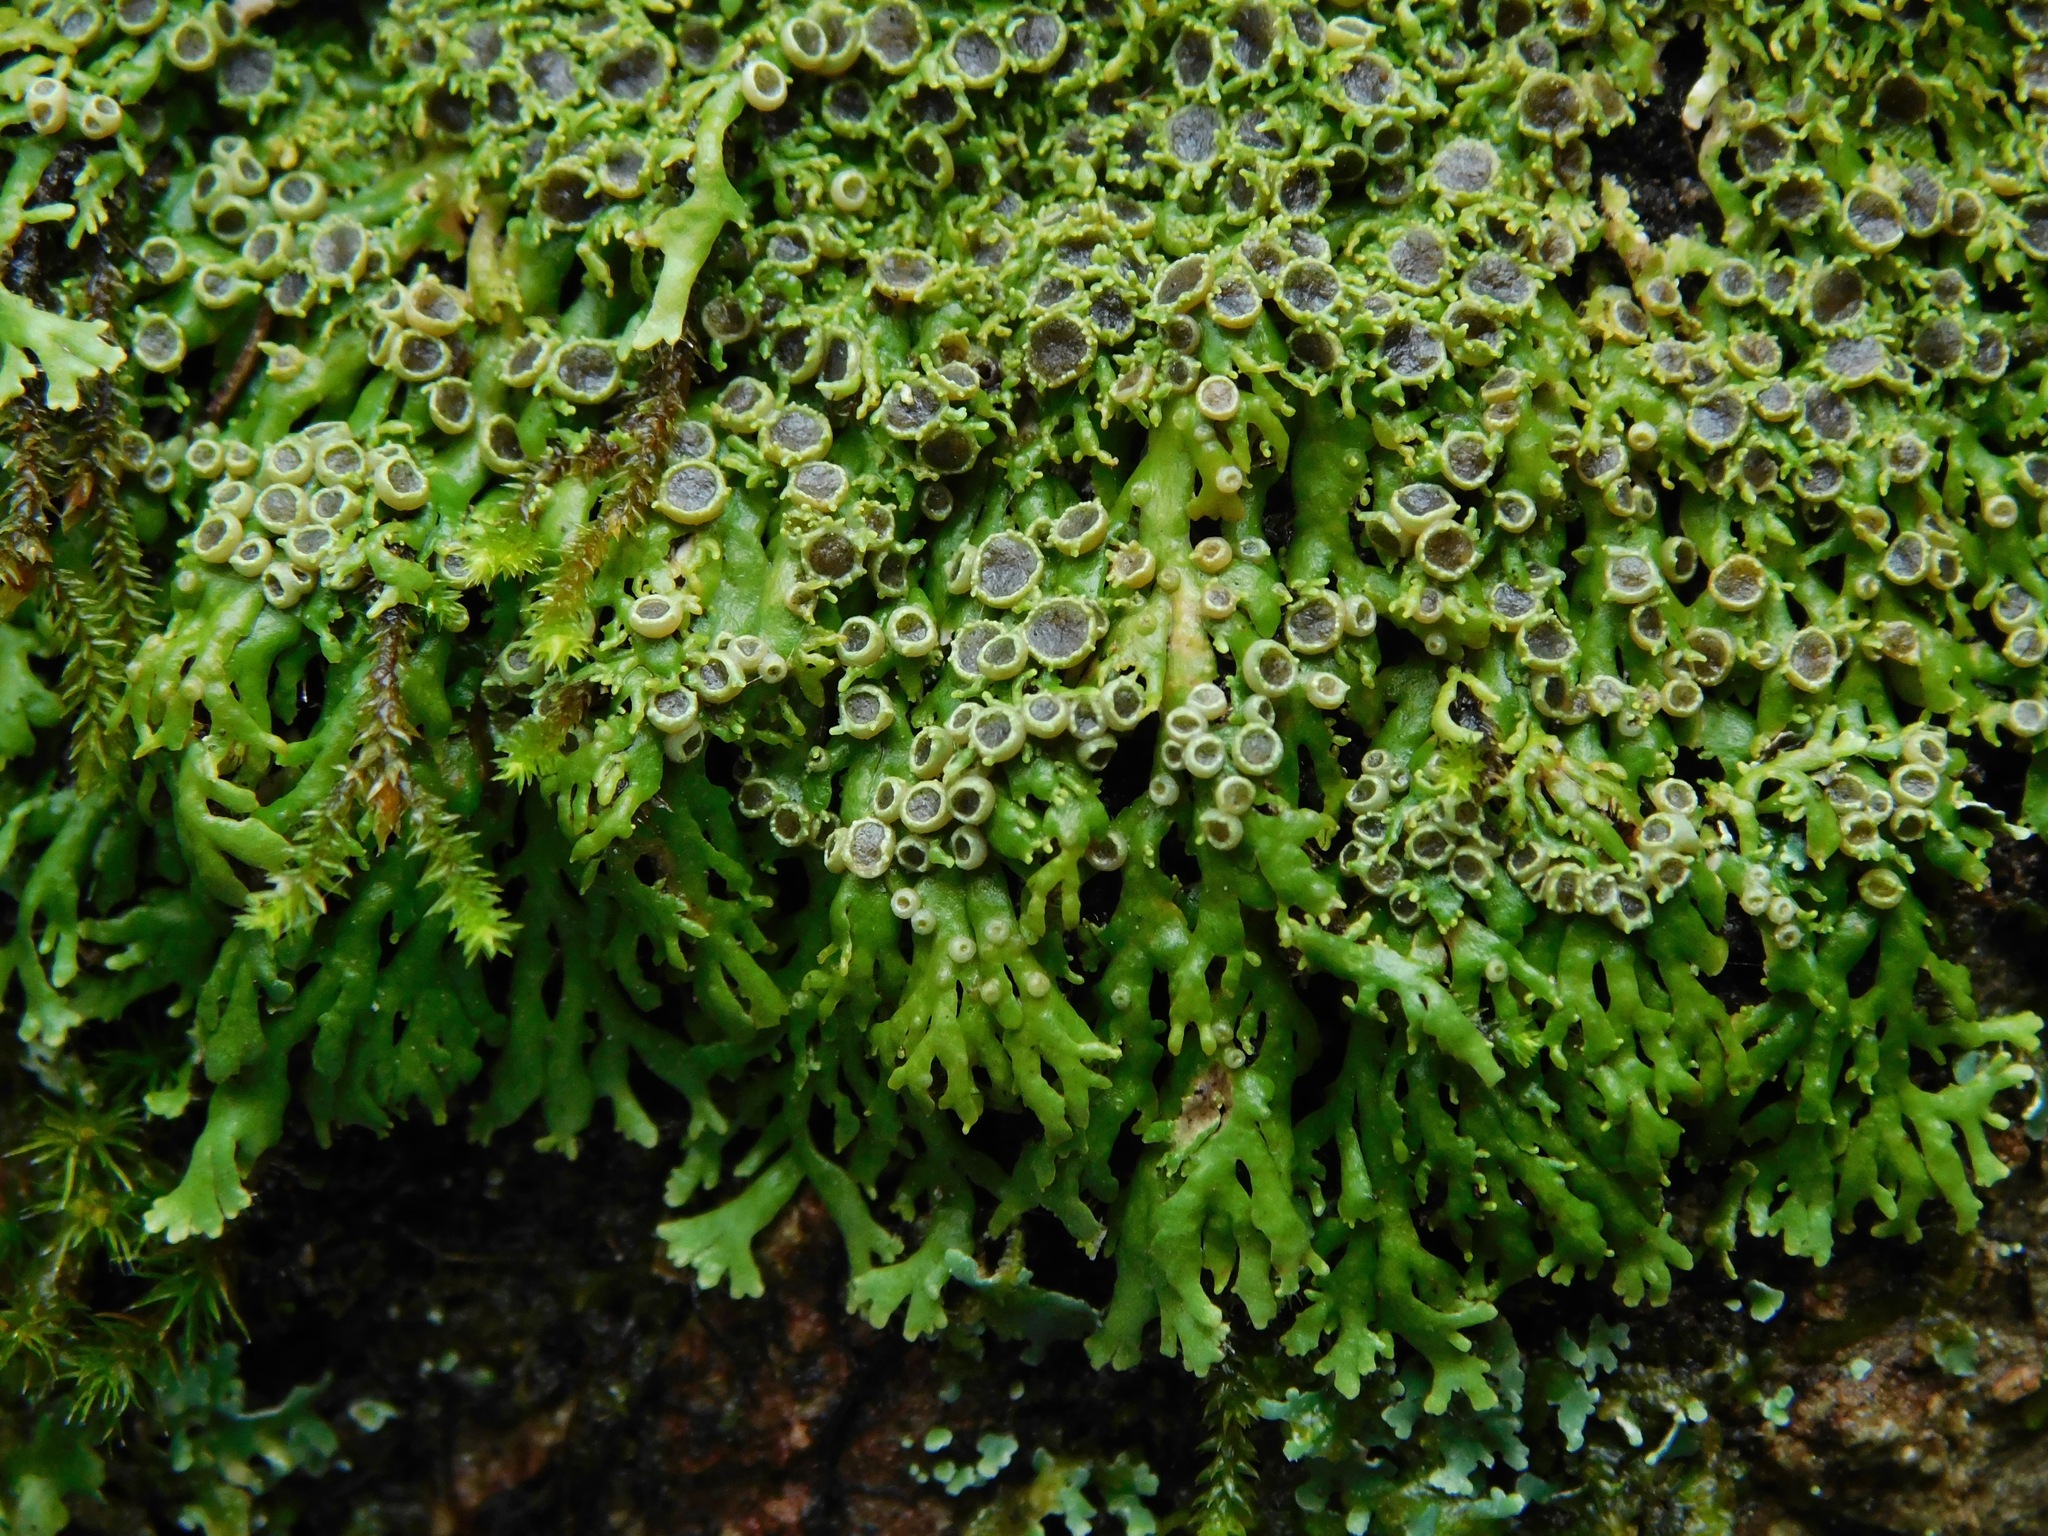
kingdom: Fungi
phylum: Ascomycota
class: Lecanoromycetes
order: Caliciales
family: Physciaceae
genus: Kurokawia
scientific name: Kurokawia palmulata
